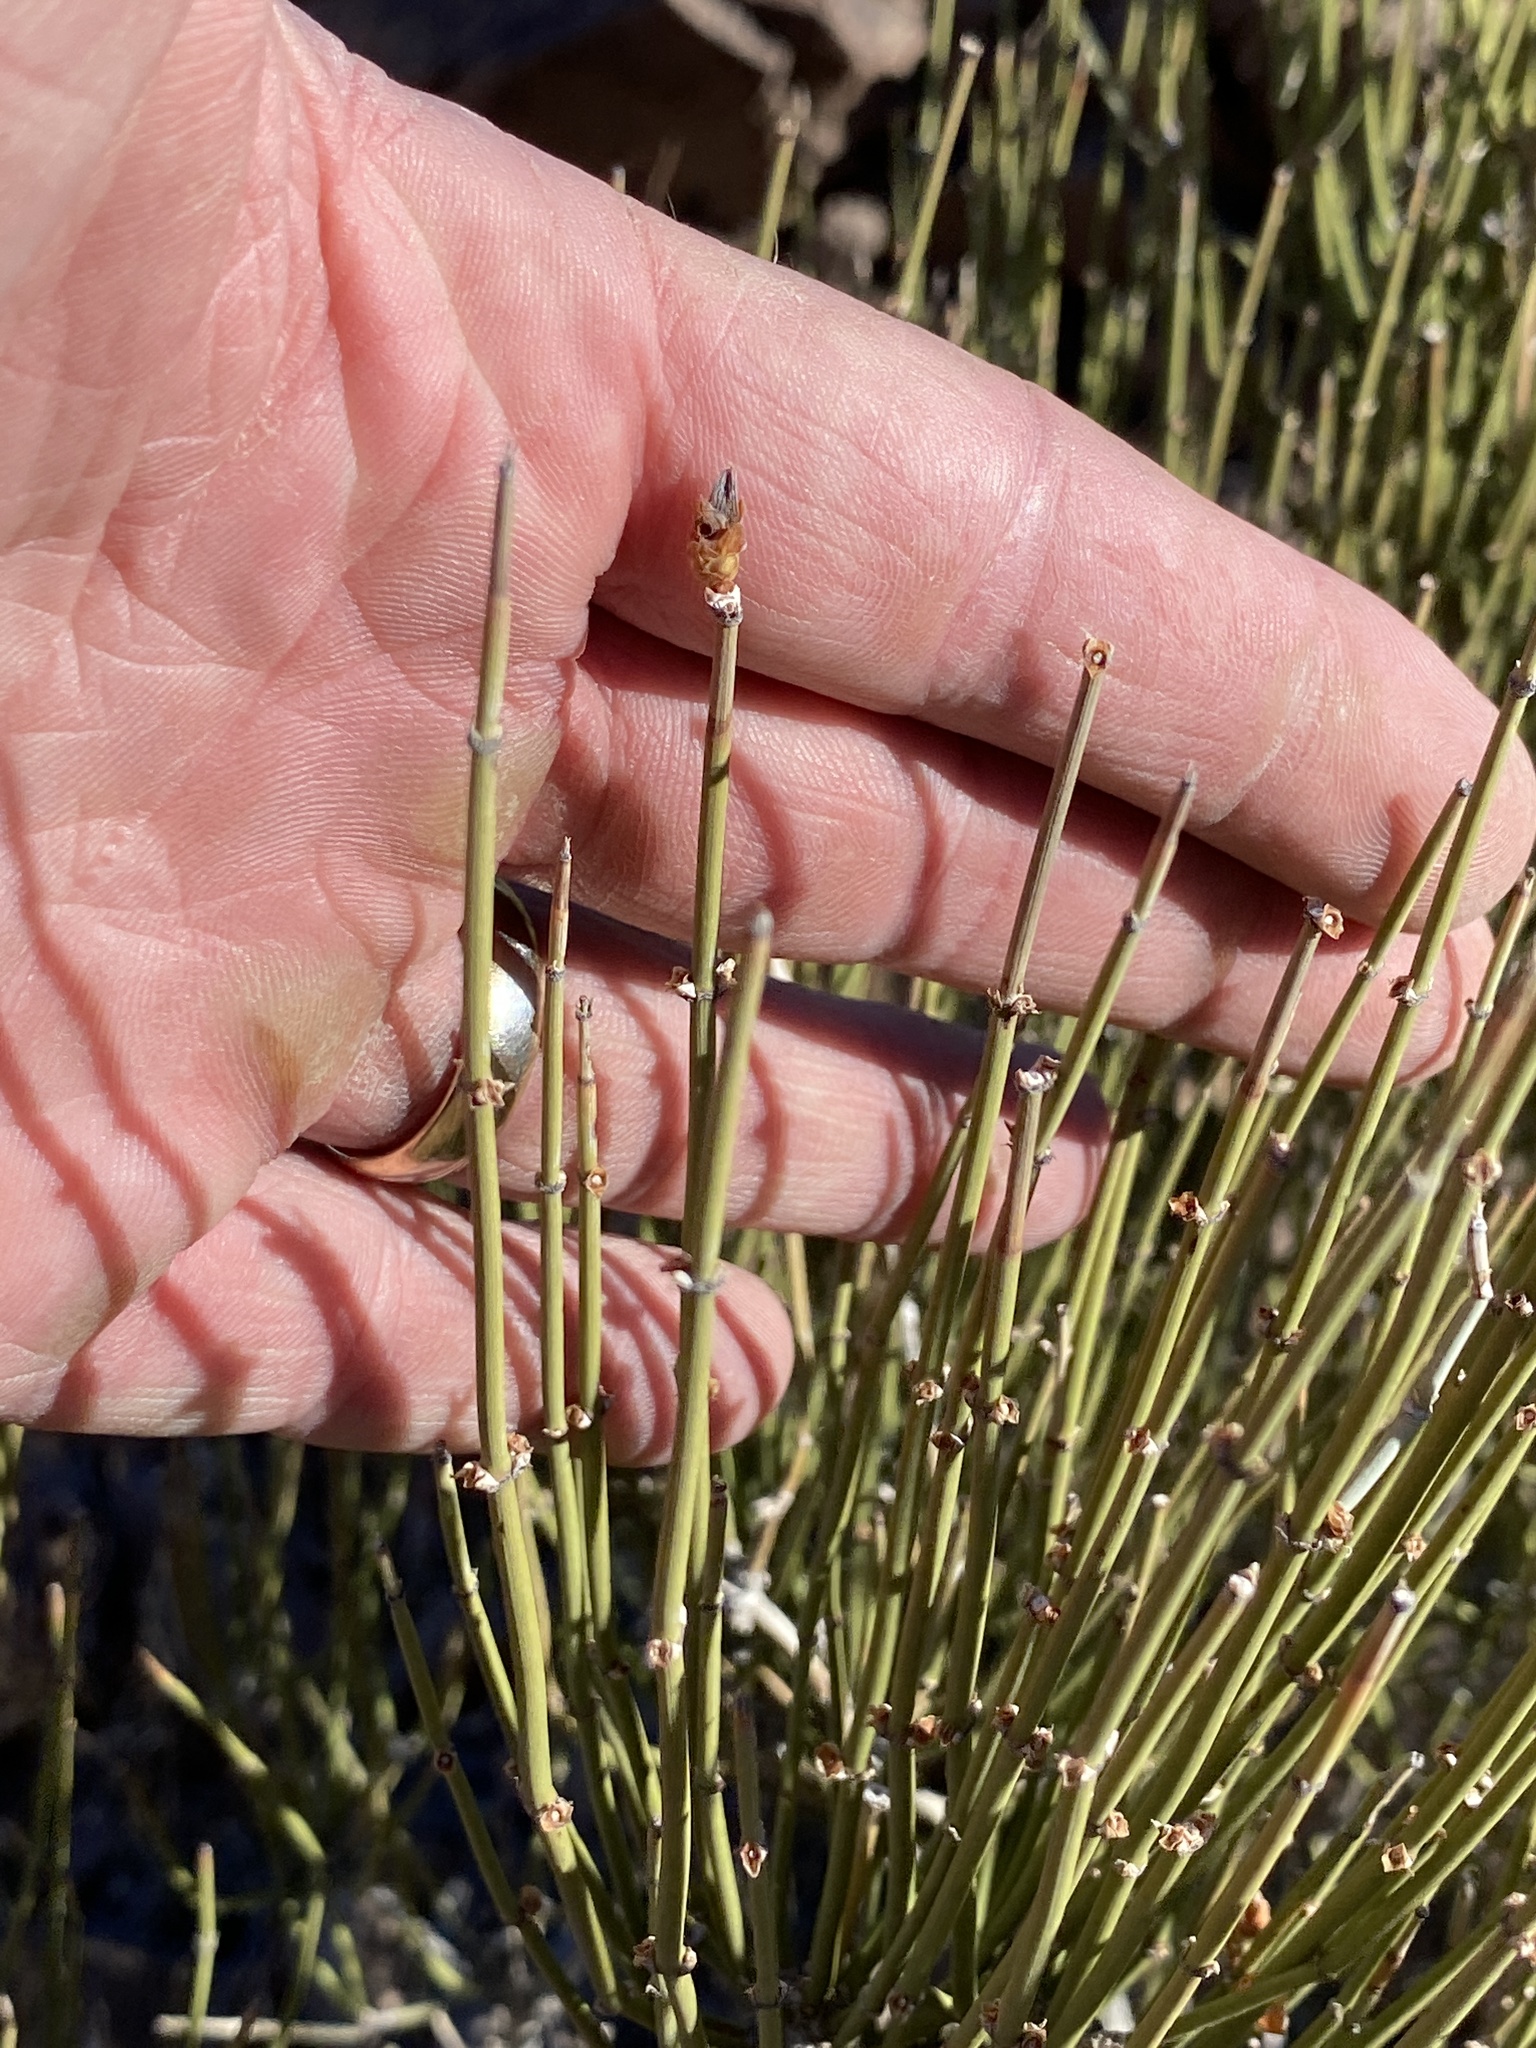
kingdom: Plantae
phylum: Tracheophyta
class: Gnetopsida
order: Ephedrales
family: Ephedraceae
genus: Ephedra
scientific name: Ephedra viridis
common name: Green ephedra
